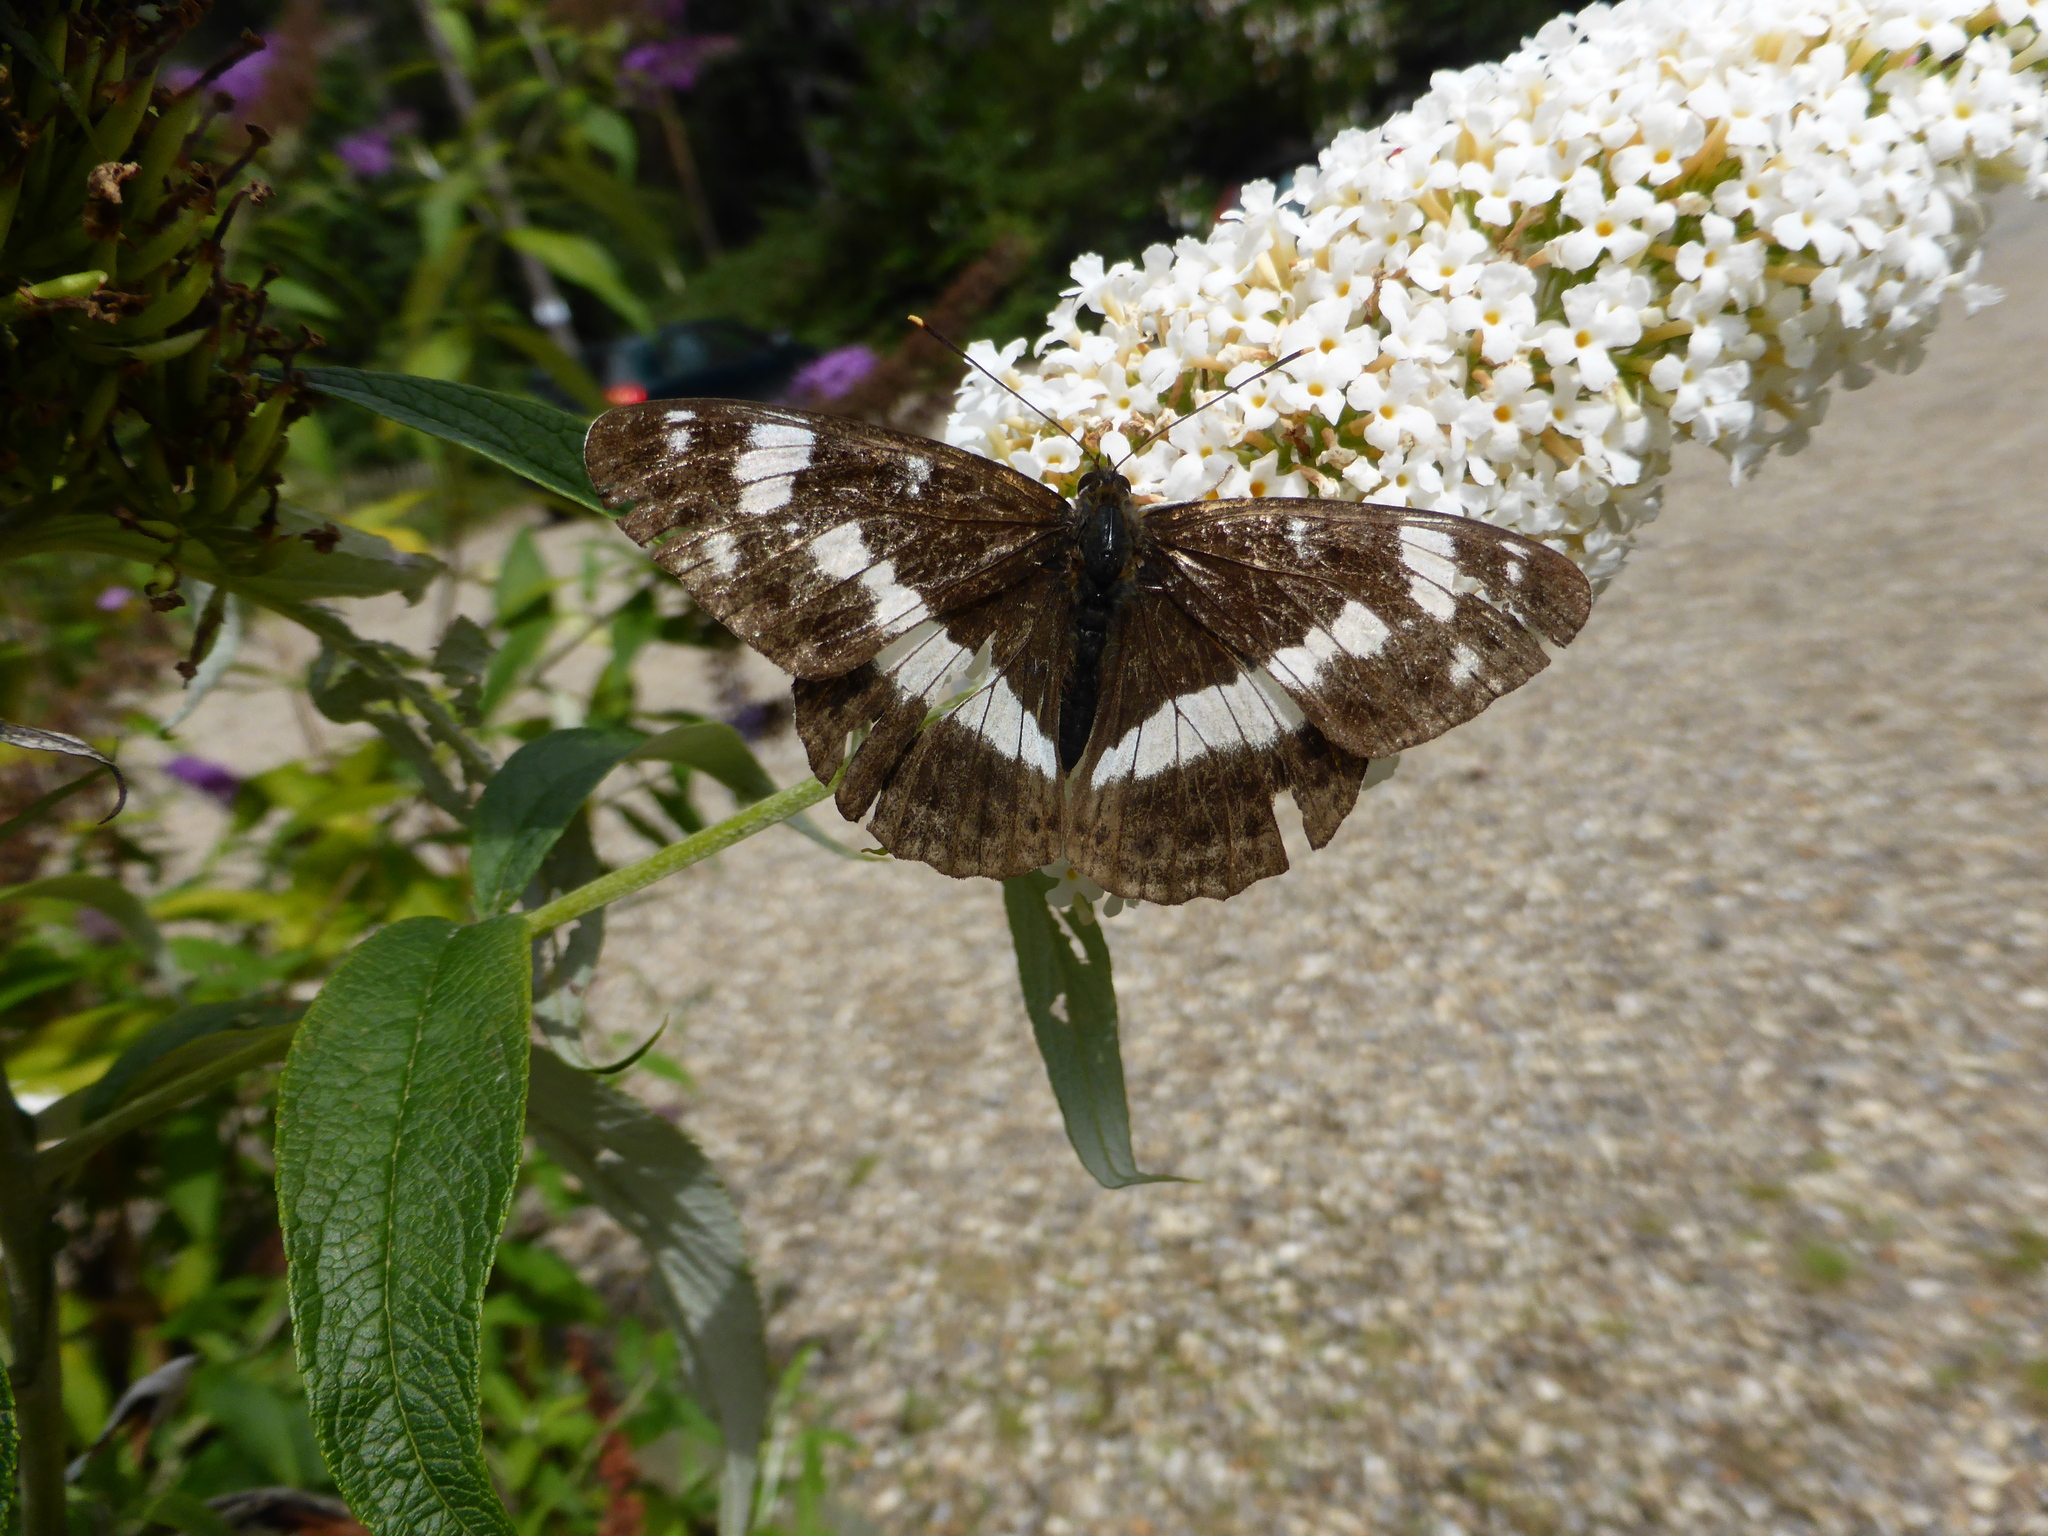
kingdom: Animalia
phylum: Arthropoda
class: Insecta
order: Lepidoptera
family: Nymphalidae
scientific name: Nymphalidae
